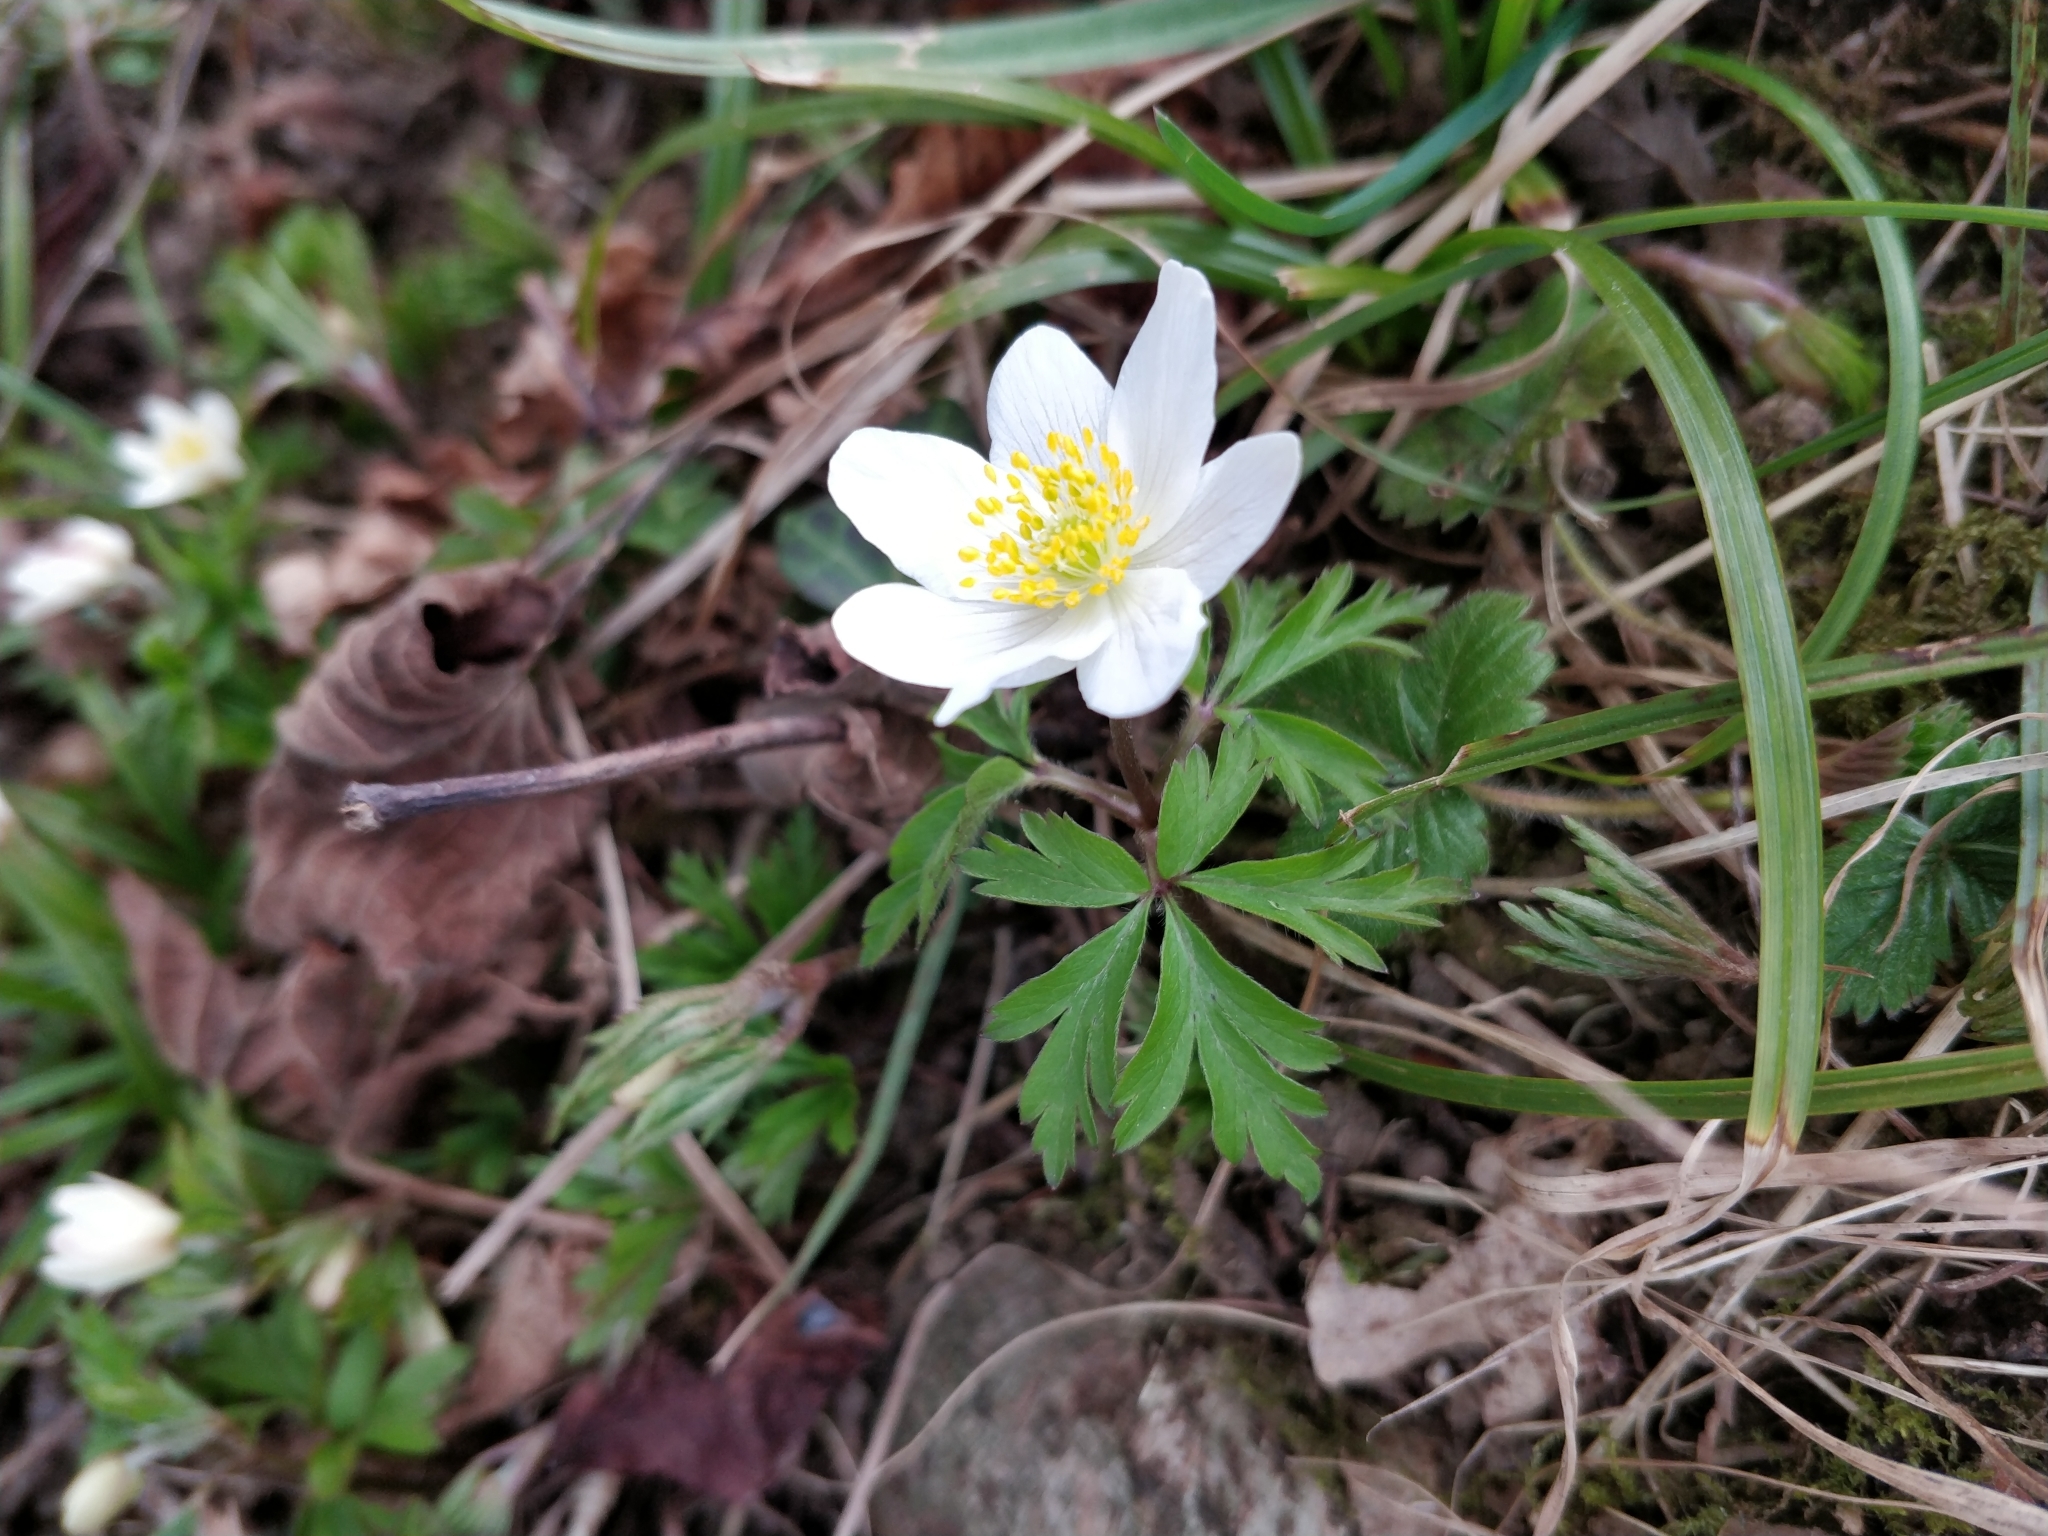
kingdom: Plantae
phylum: Tracheophyta
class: Magnoliopsida
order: Ranunculales
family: Ranunculaceae
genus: Anemone
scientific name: Anemone nemorosa
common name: Wood anemone
